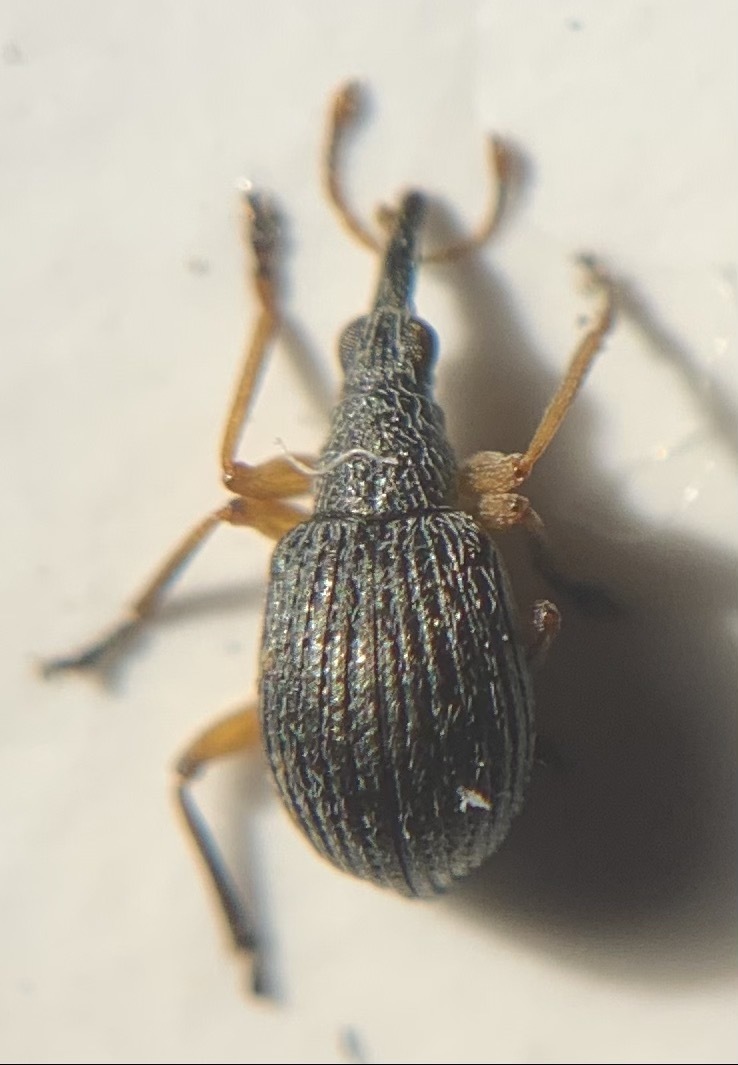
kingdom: Animalia
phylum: Arthropoda
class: Insecta
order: Coleoptera
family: Brentidae
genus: Eutrichapion
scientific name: Eutrichapion viciae
